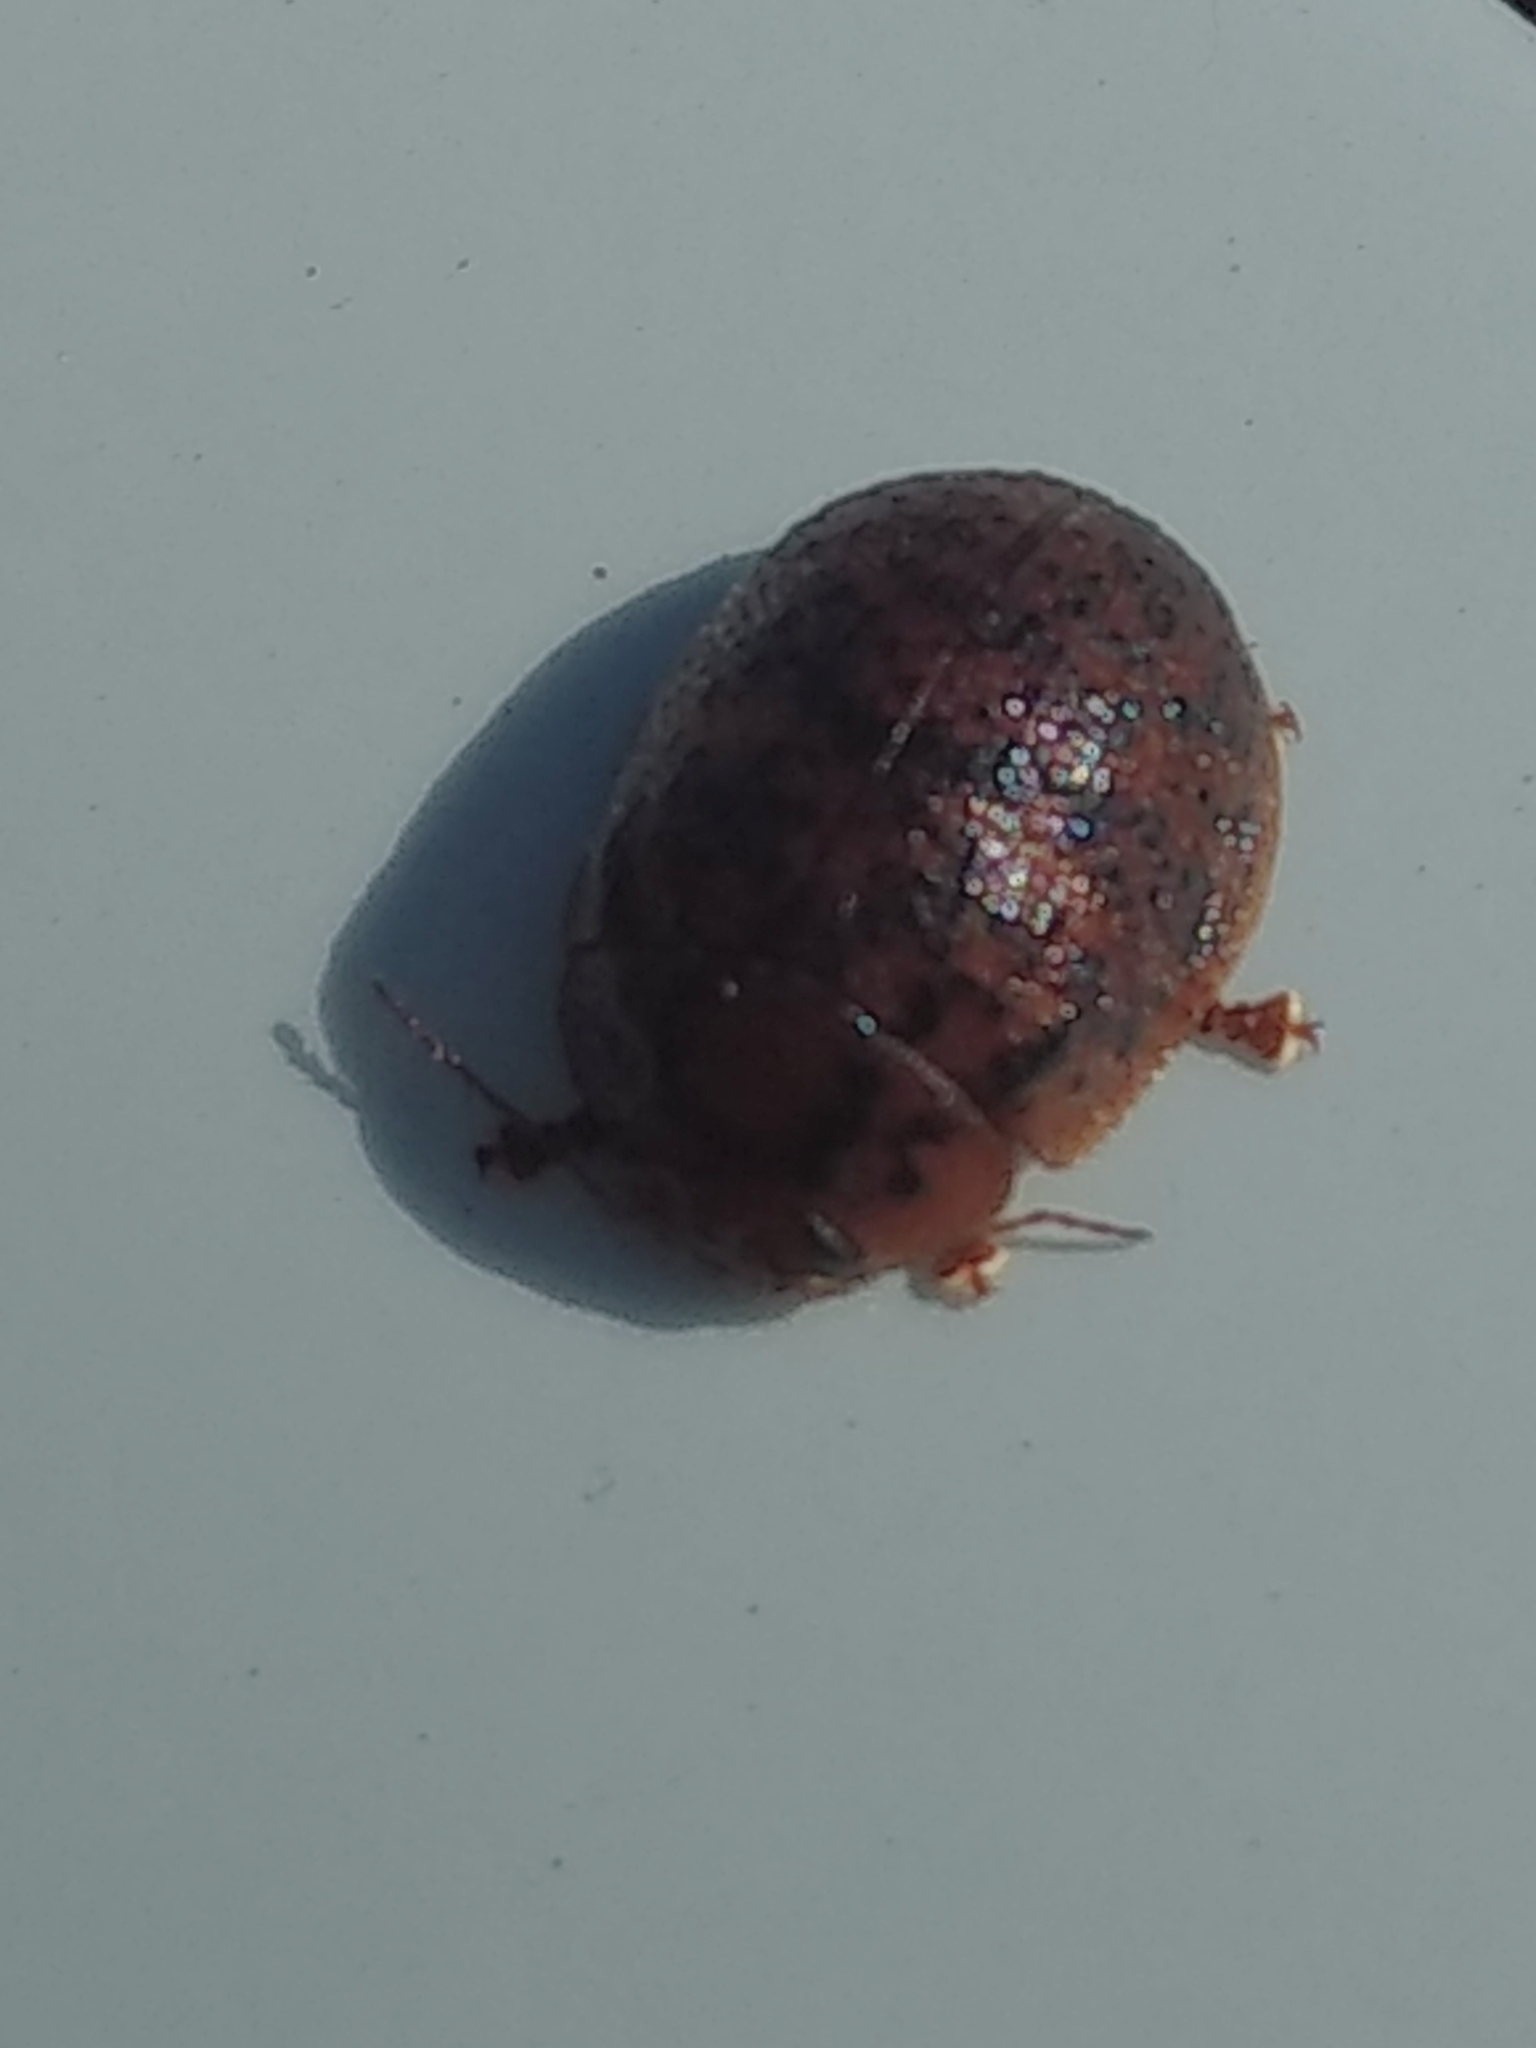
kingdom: Animalia
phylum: Arthropoda
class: Insecta
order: Coleoptera
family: Chrysomelidae
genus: Trachymela
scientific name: Trachymela sloanei
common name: Australian tortoise beetle
